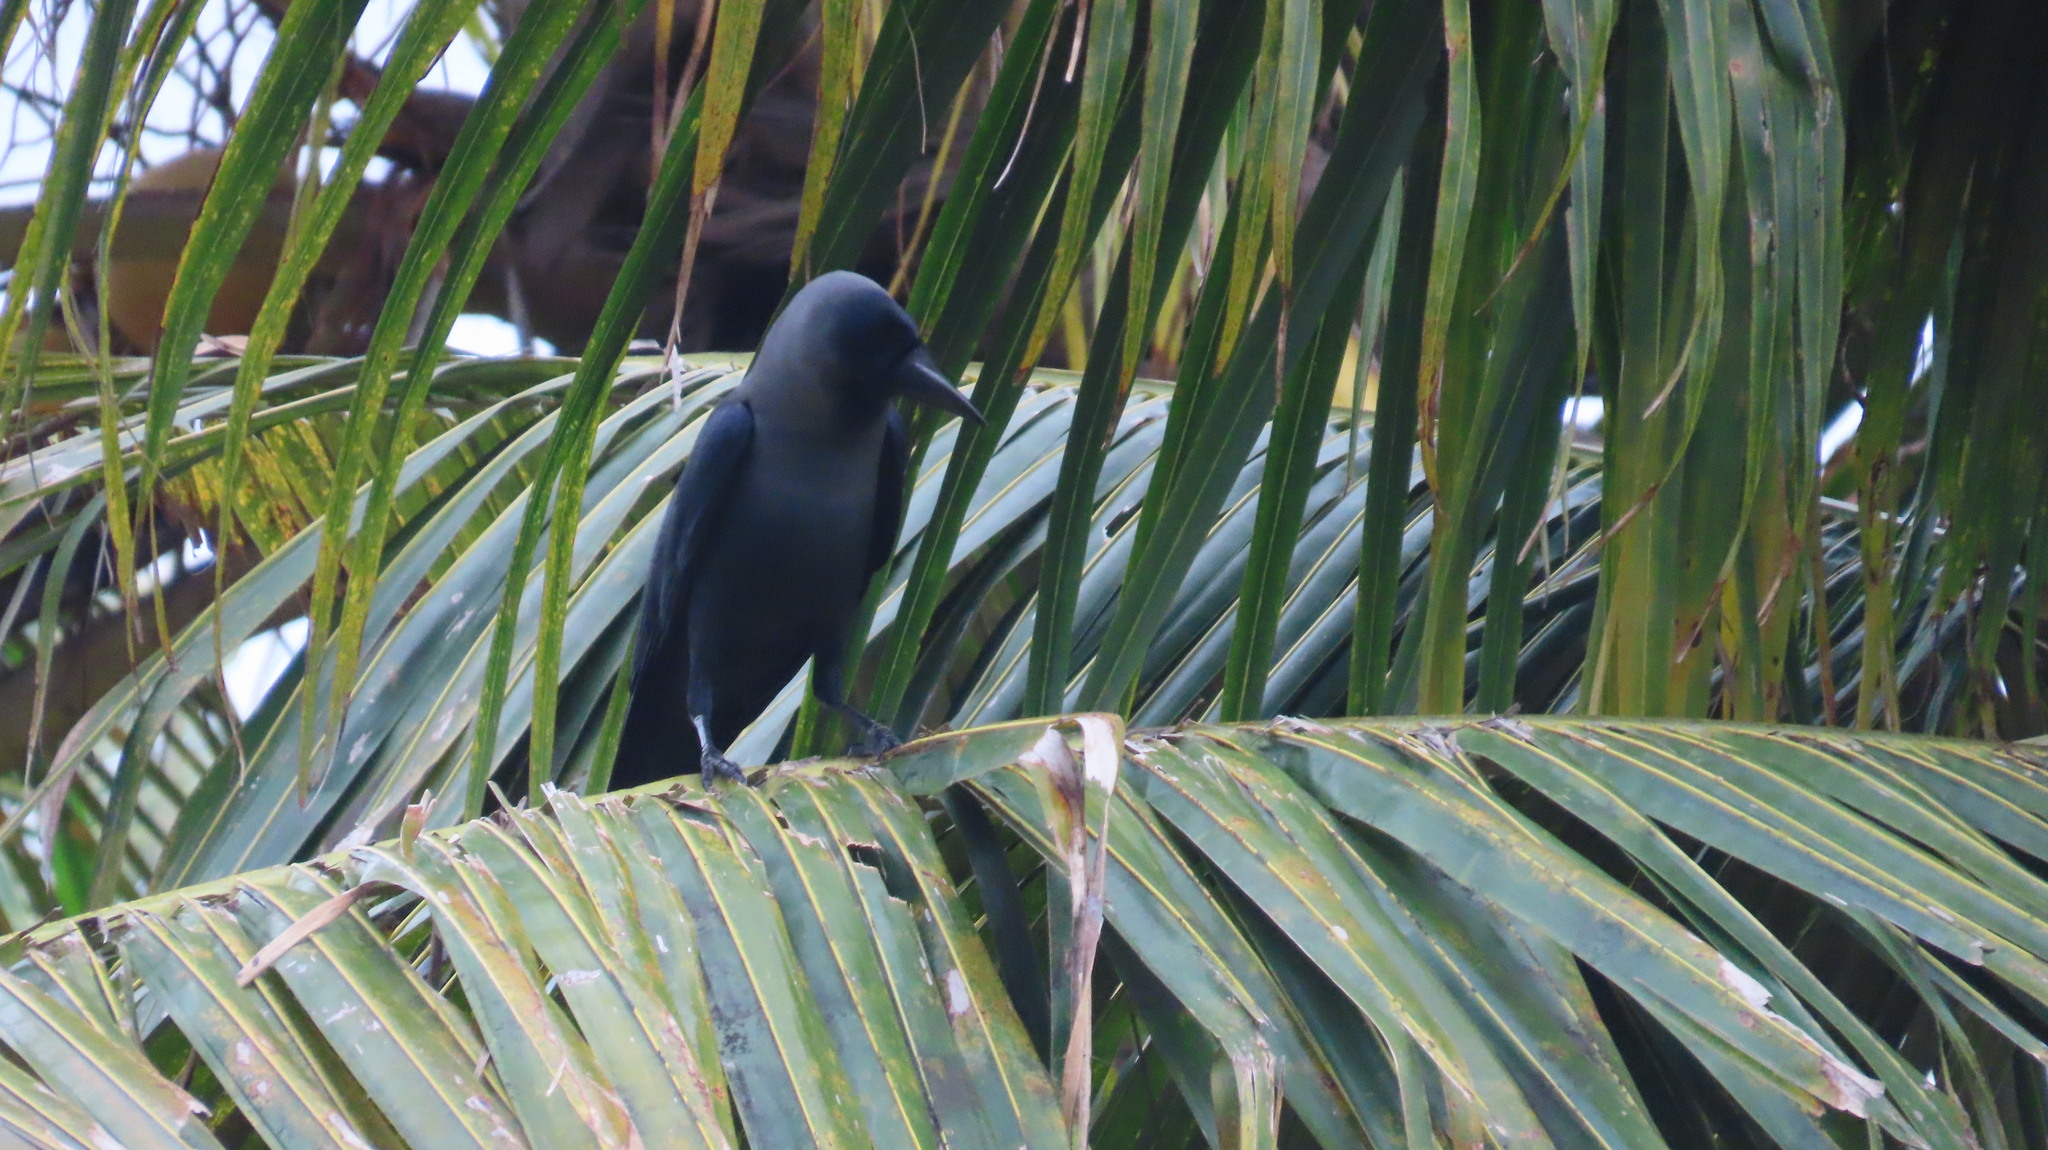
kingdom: Animalia
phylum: Chordata
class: Aves
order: Passeriformes
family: Corvidae
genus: Corvus
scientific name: Corvus splendens
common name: House crow
